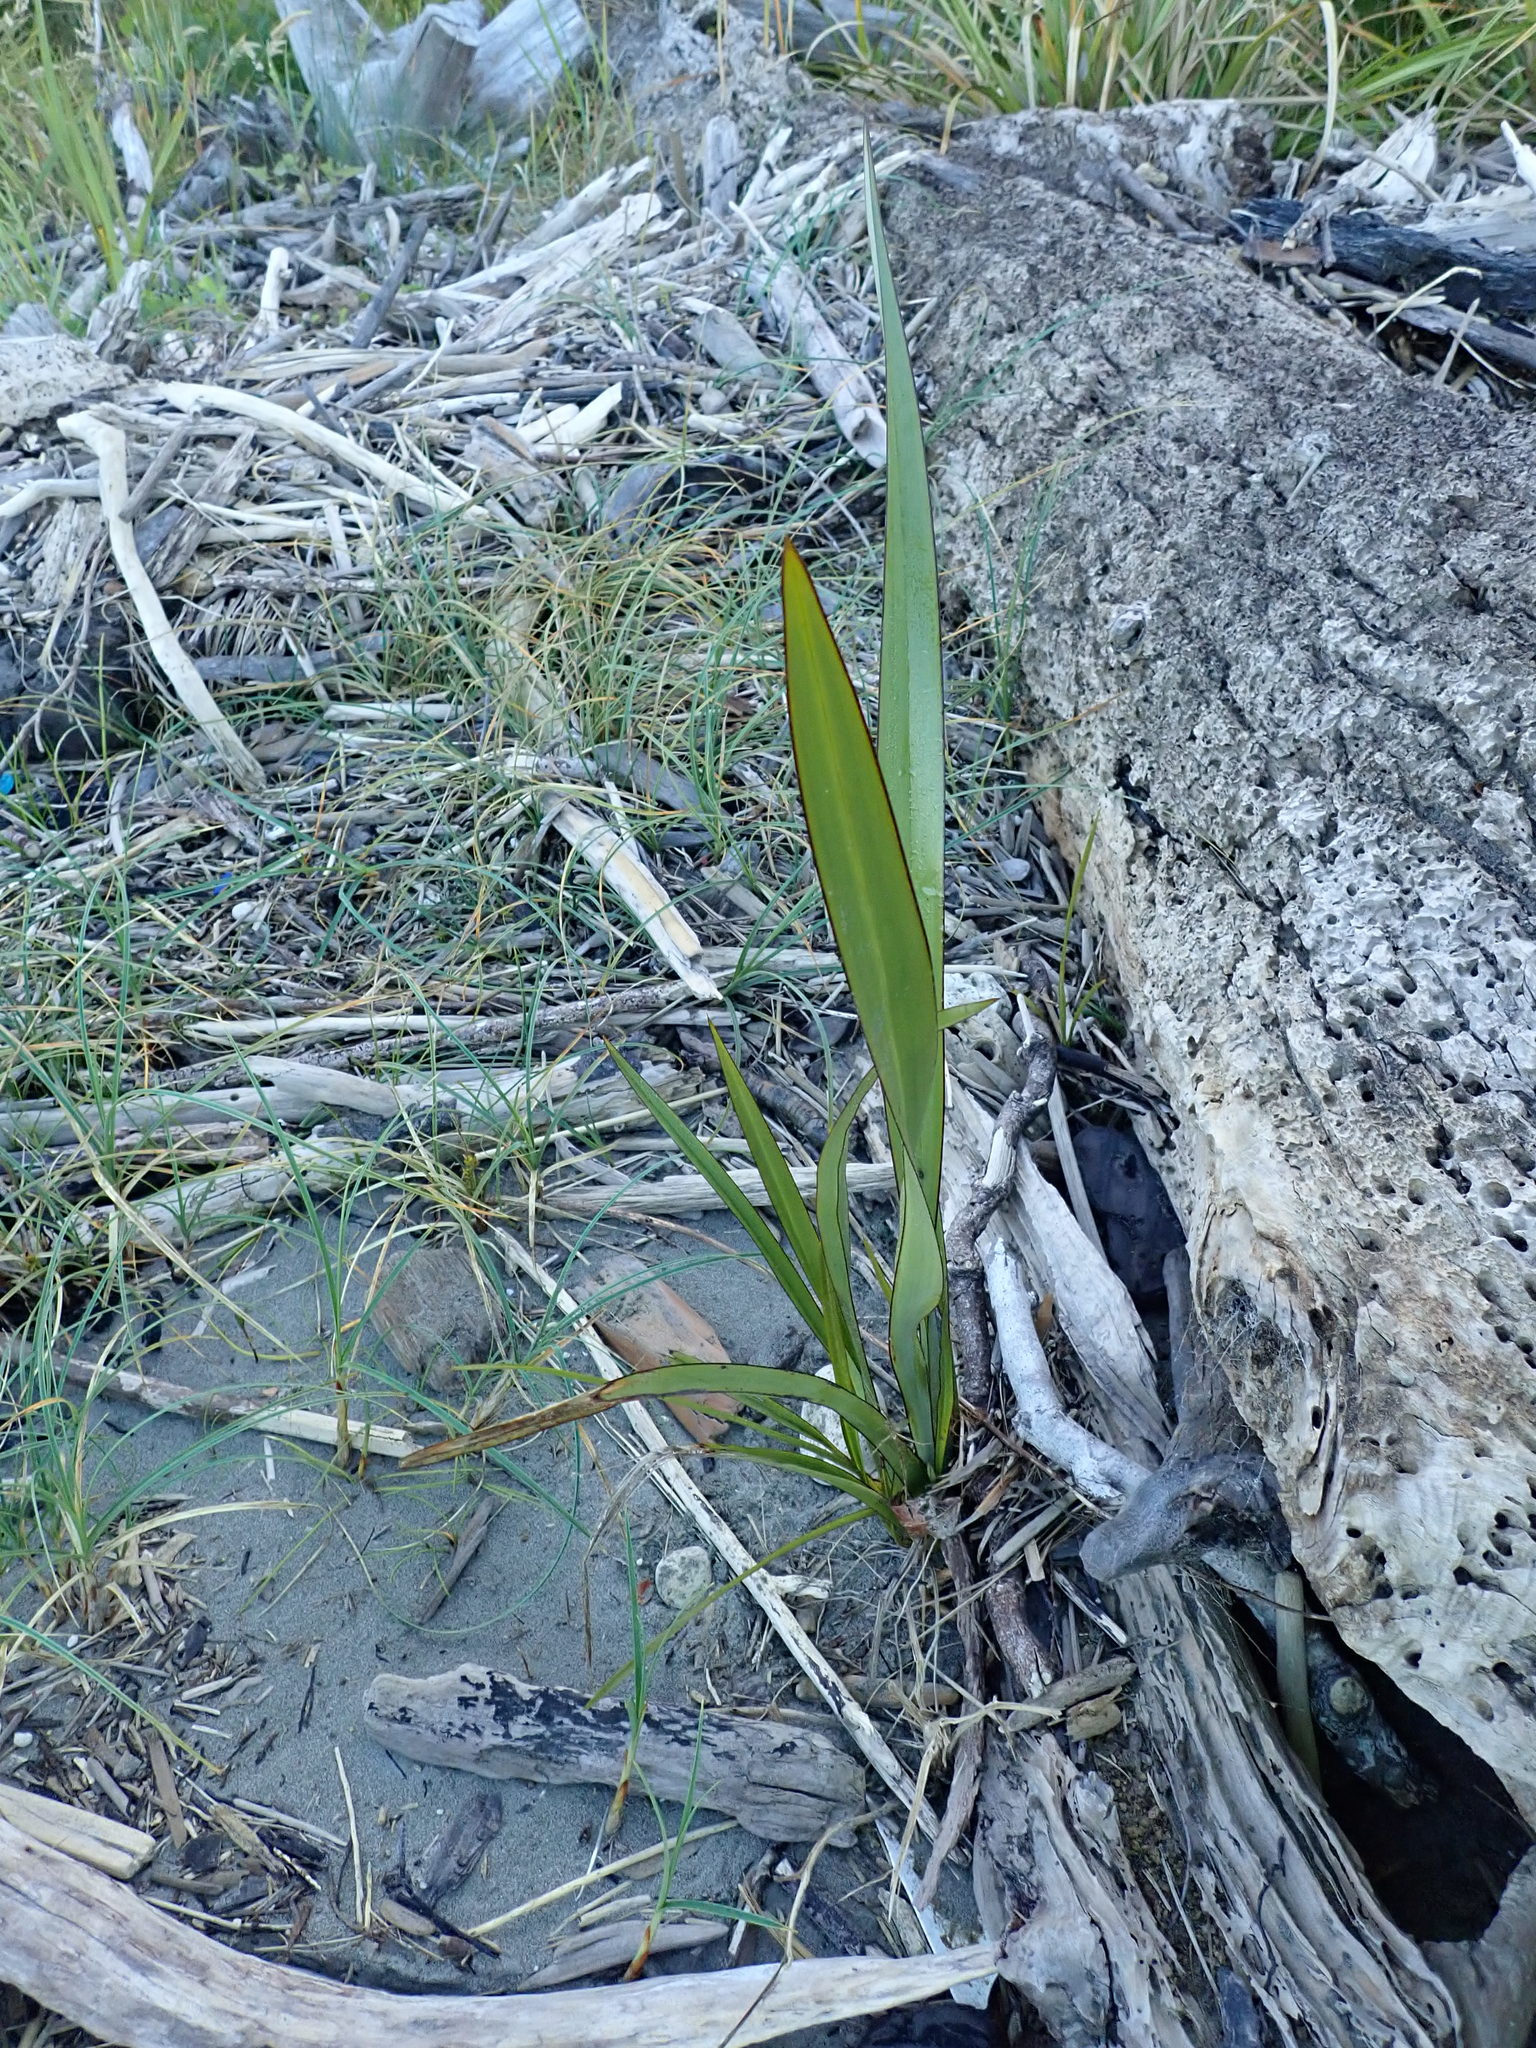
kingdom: Plantae
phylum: Tracheophyta
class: Liliopsida
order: Asparagales
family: Asphodelaceae
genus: Phormium
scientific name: Phormium tenax
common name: New zealand flax
